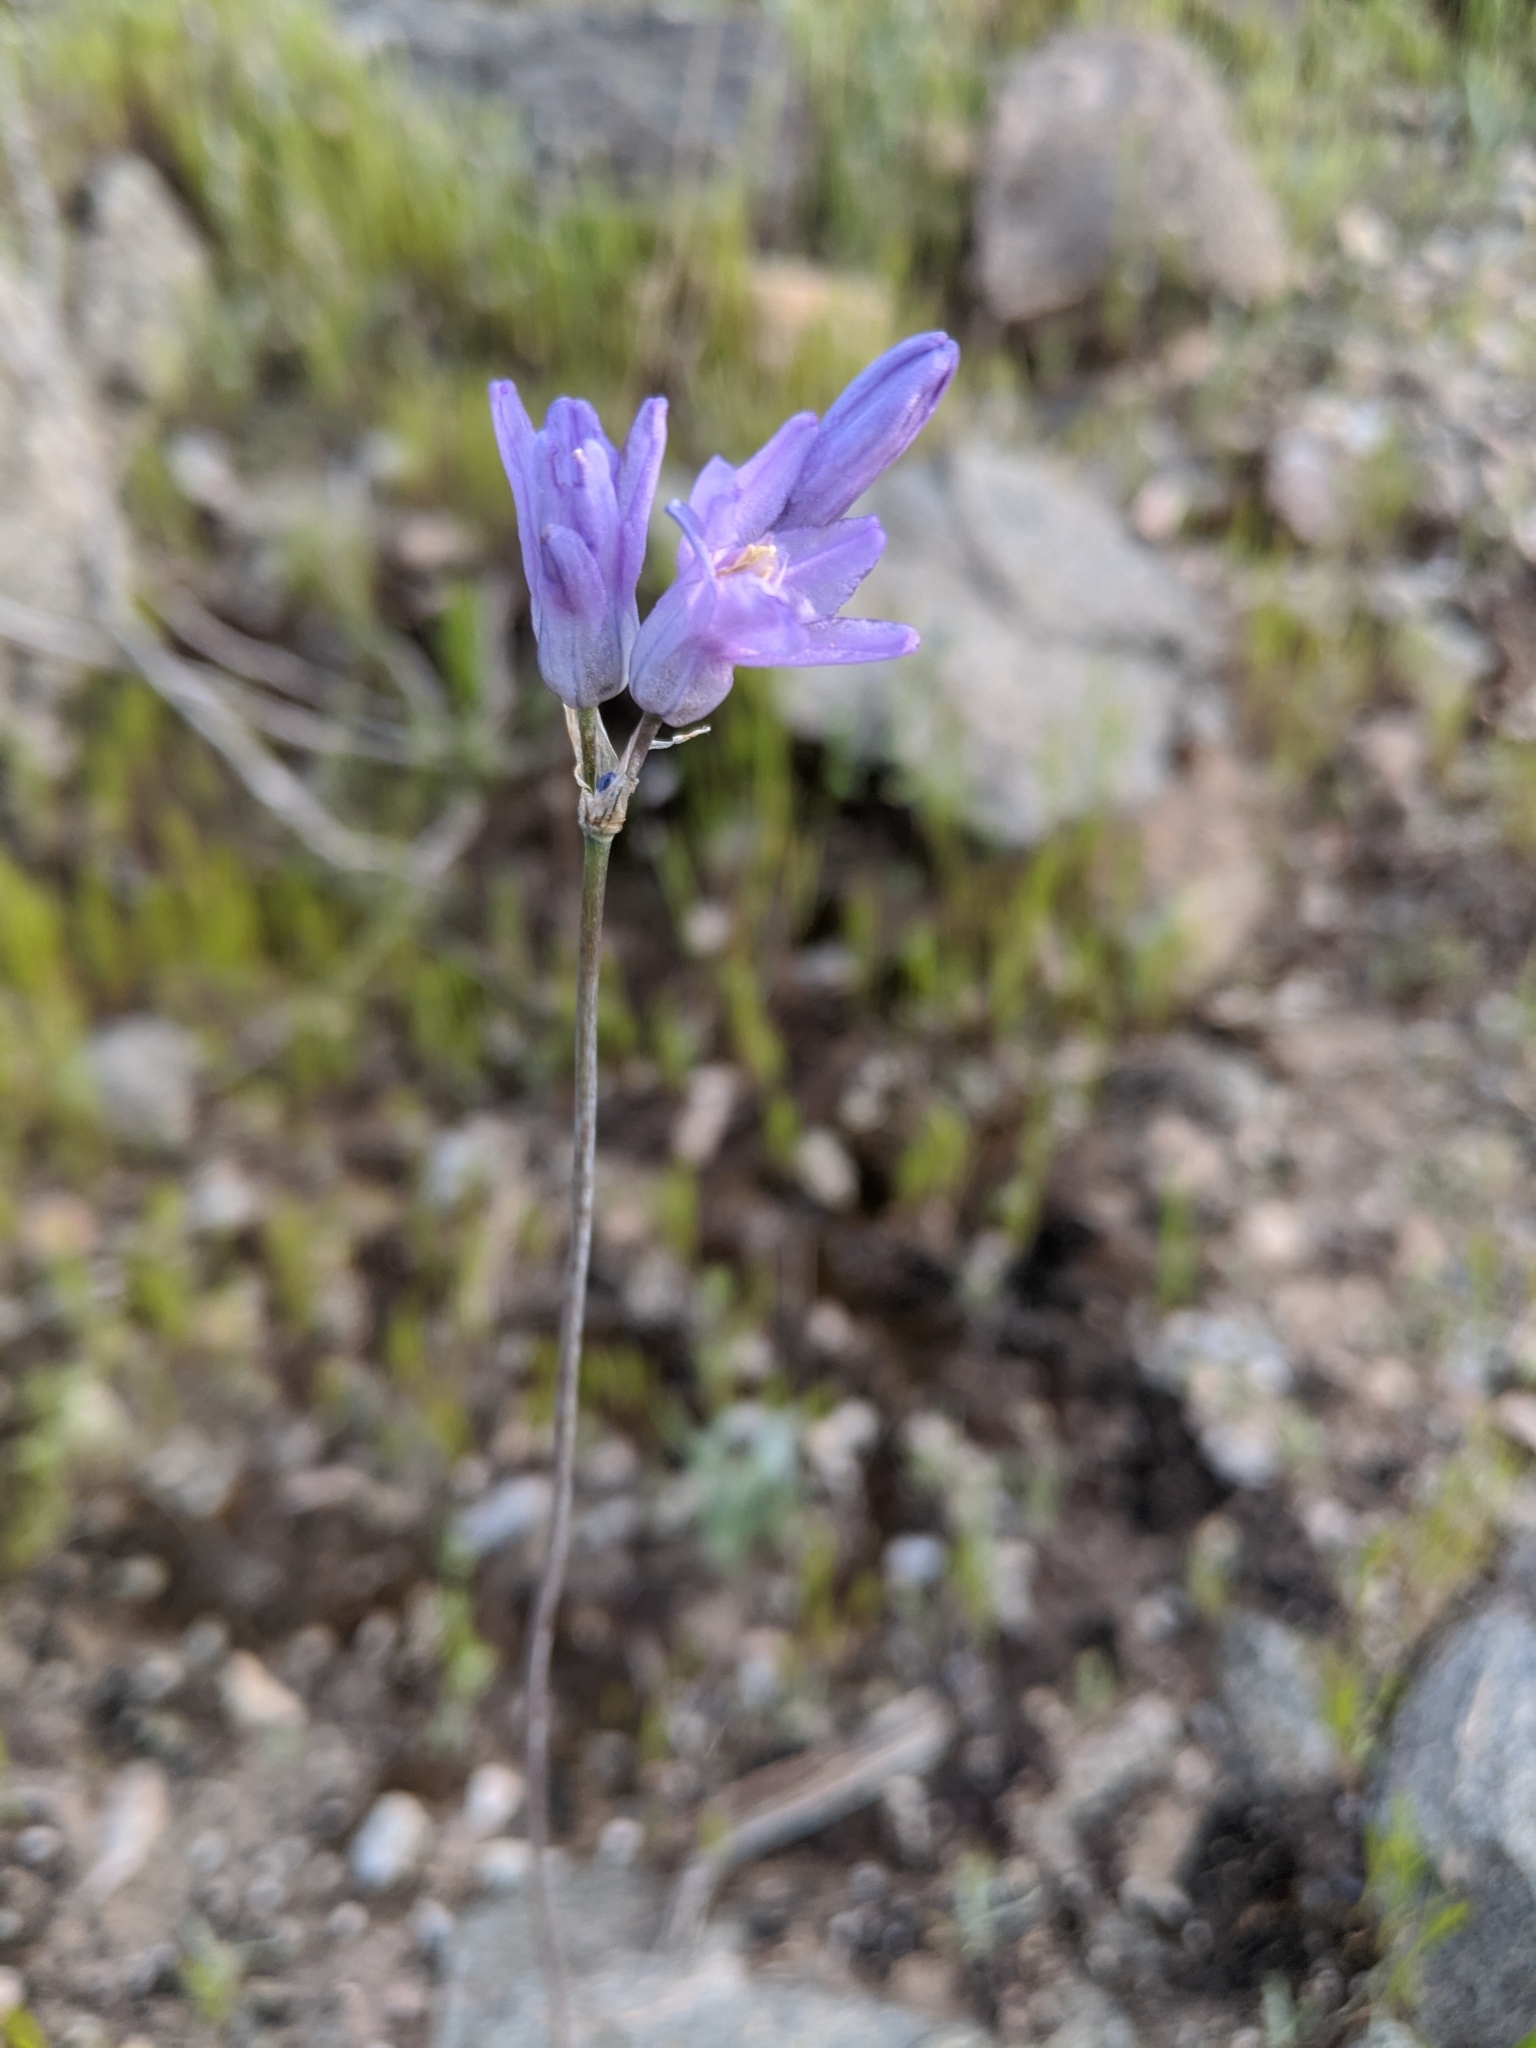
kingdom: Plantae
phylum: Tracheophyta
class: Liliopsida
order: Asparagales
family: Asparagaceae
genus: Dipterostemon
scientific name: Dipterostemon capitatus
